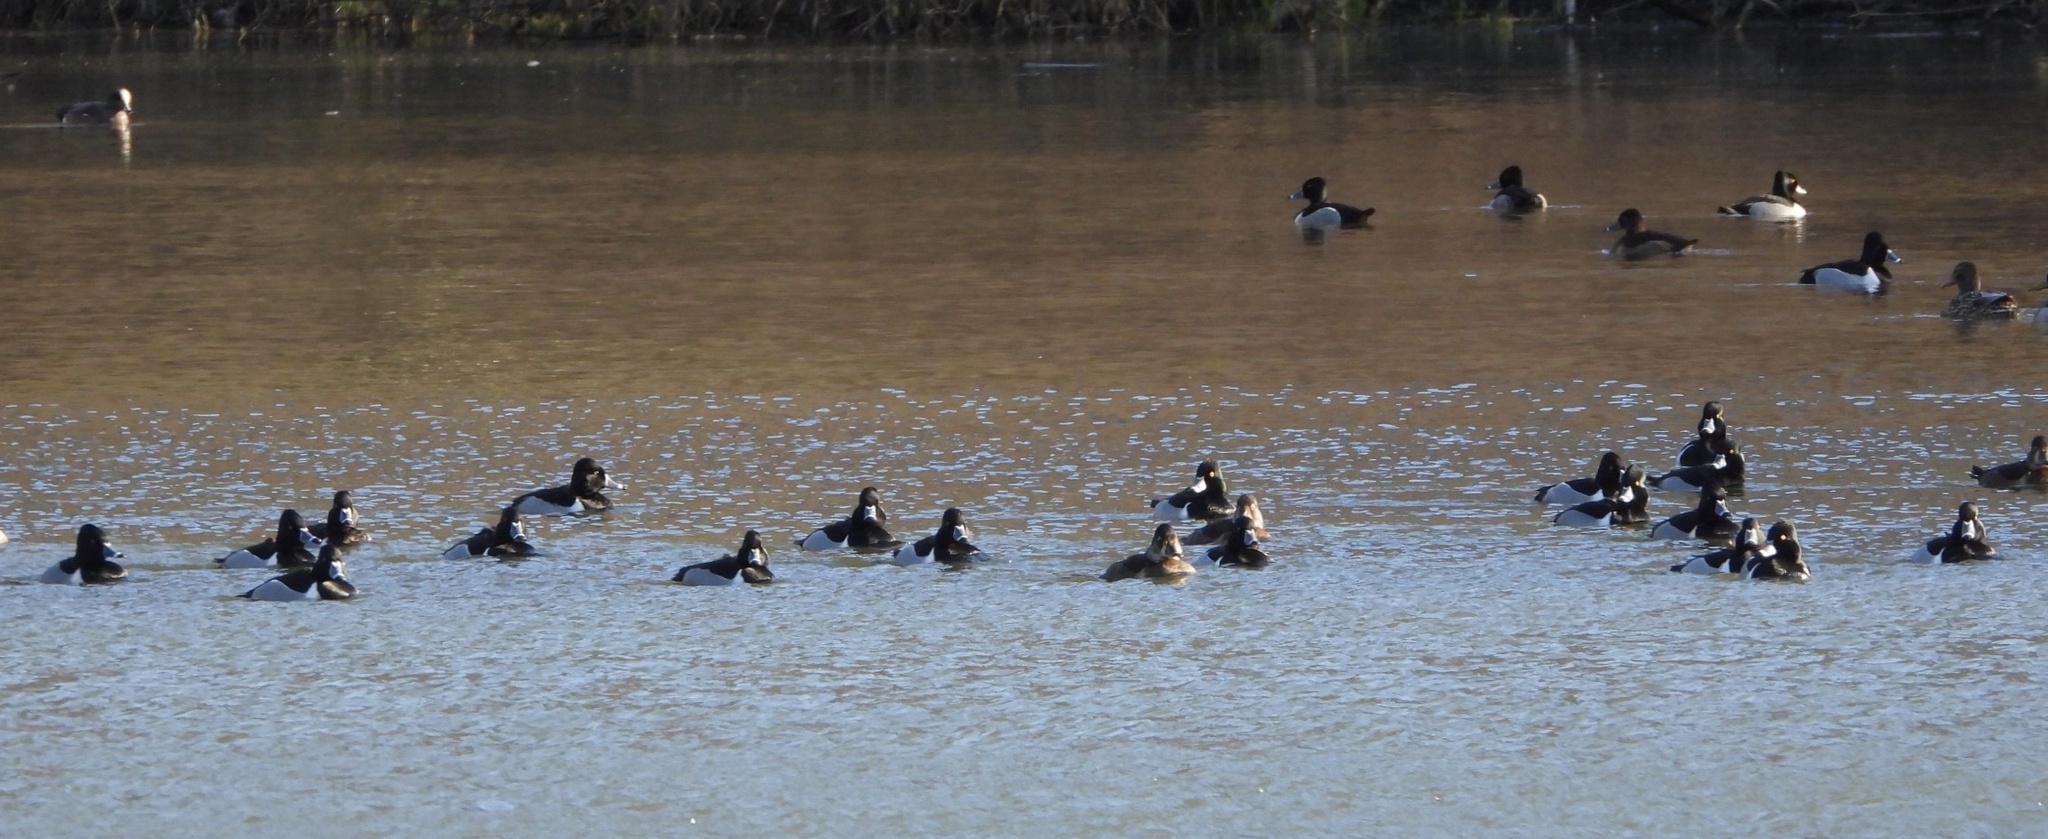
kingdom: Animalia
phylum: Chordata
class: Aves
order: Anseriformes
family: Anatidae
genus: Aythya
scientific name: Aythya collaris
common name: Ring-necked duck
